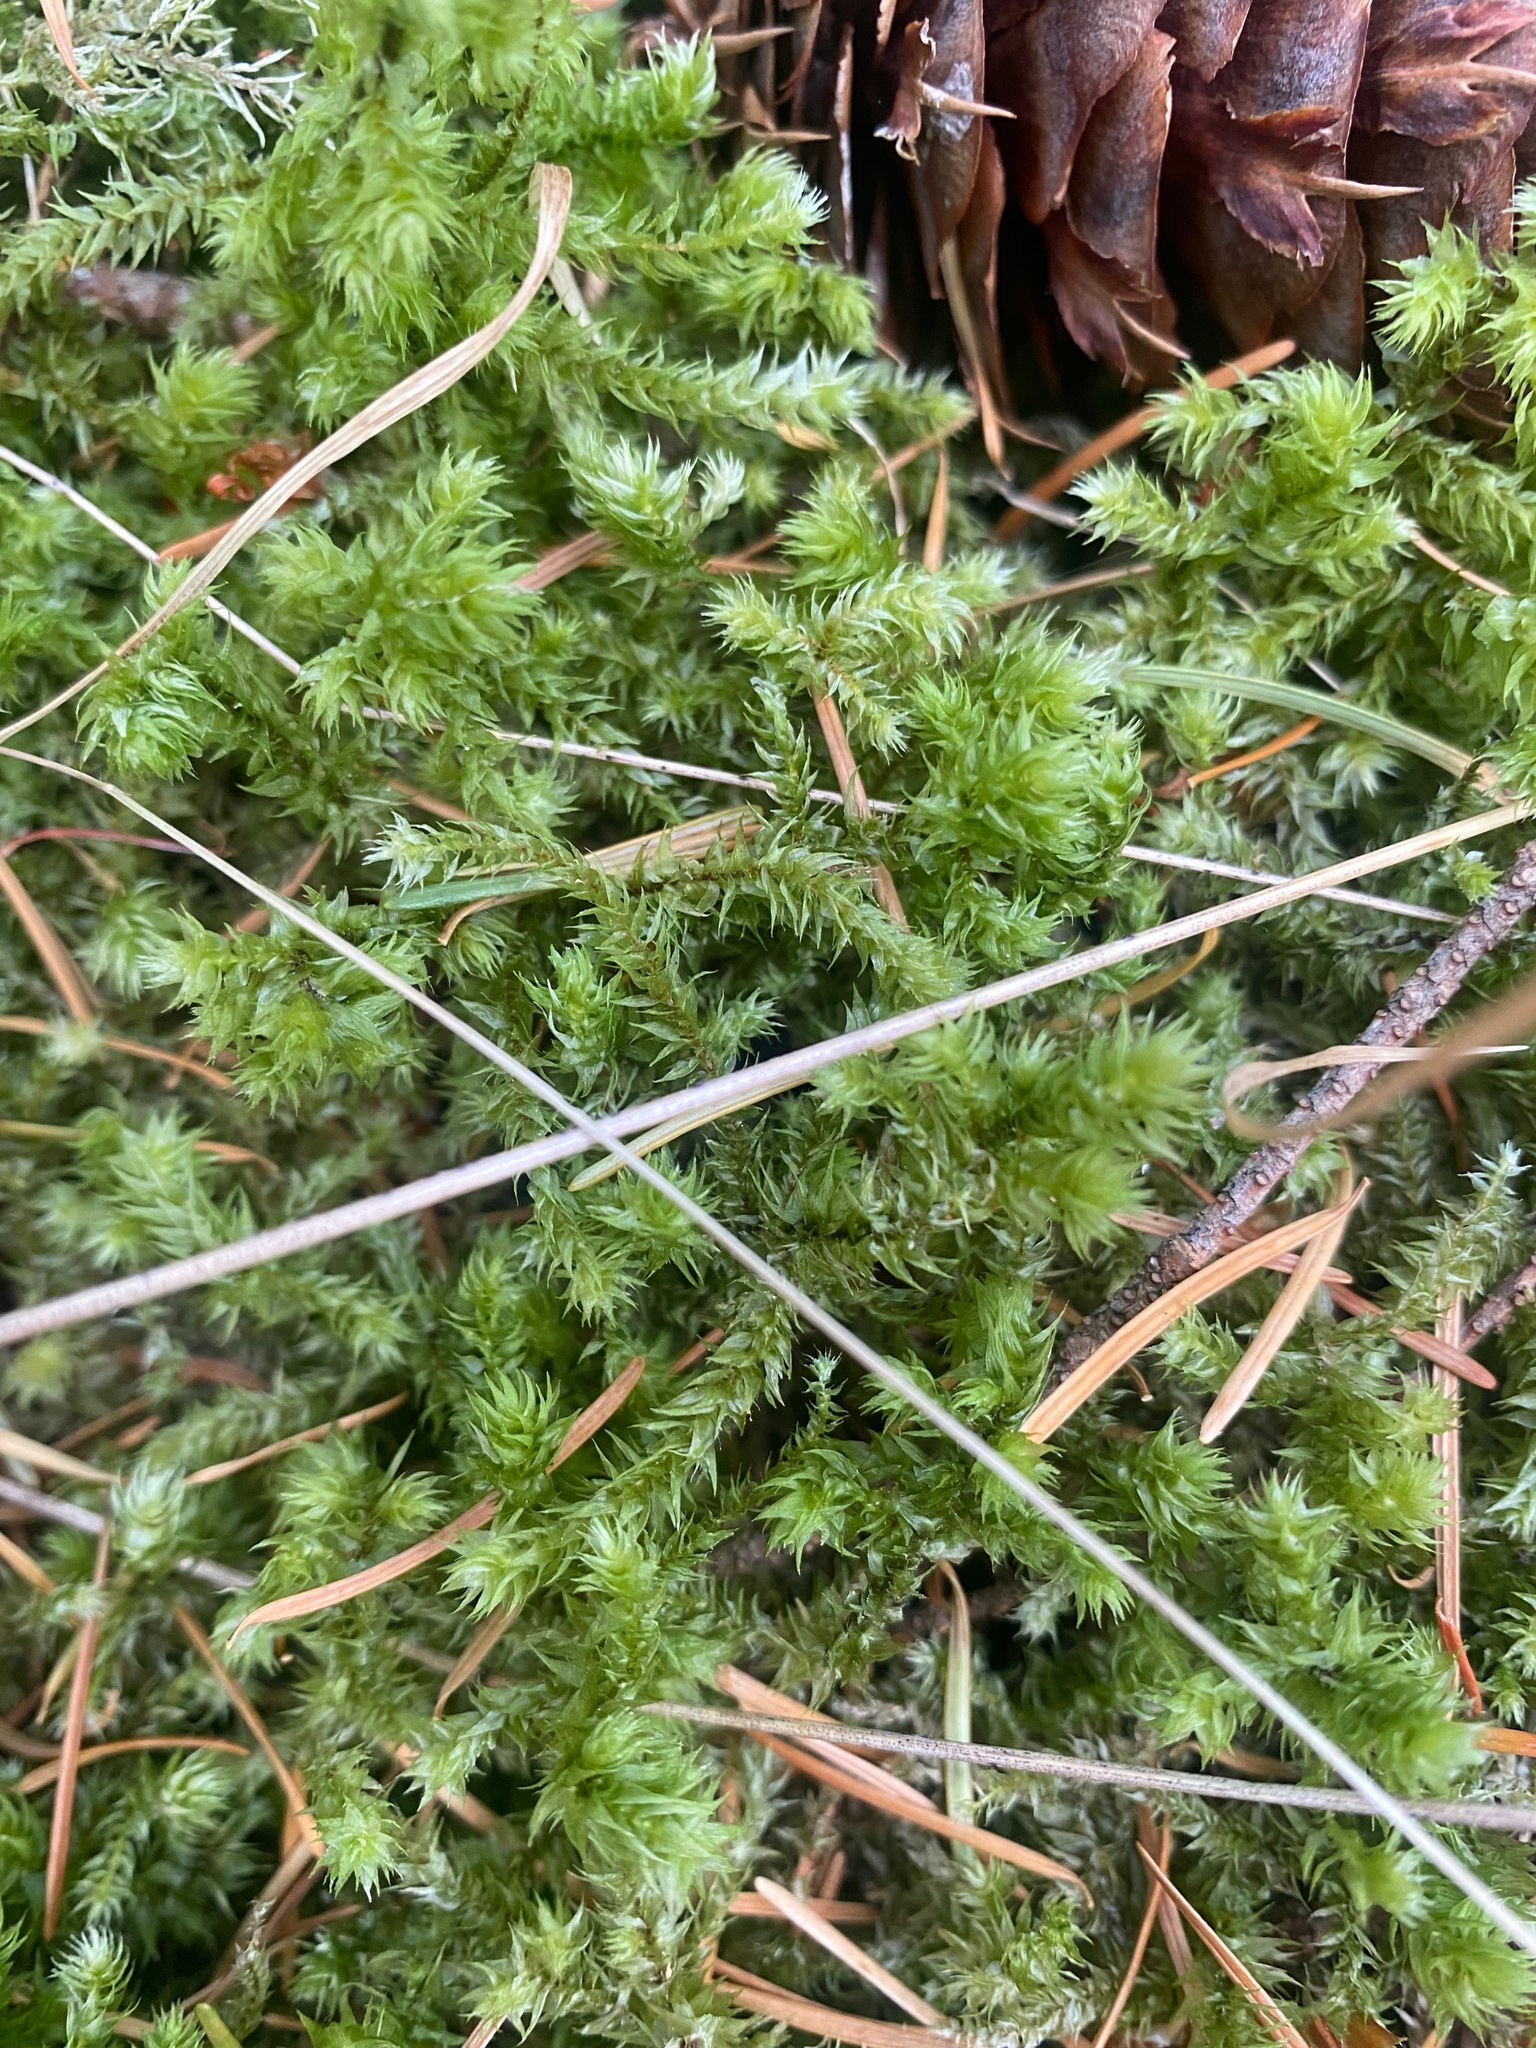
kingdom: Plantae
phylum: Bryophyta
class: Bryopsida
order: Hypnales
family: Hylocomiaceae
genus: Hylocomiadelphus
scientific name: Hylocomiadelphus triquetrus
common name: Rough goose neck moss
